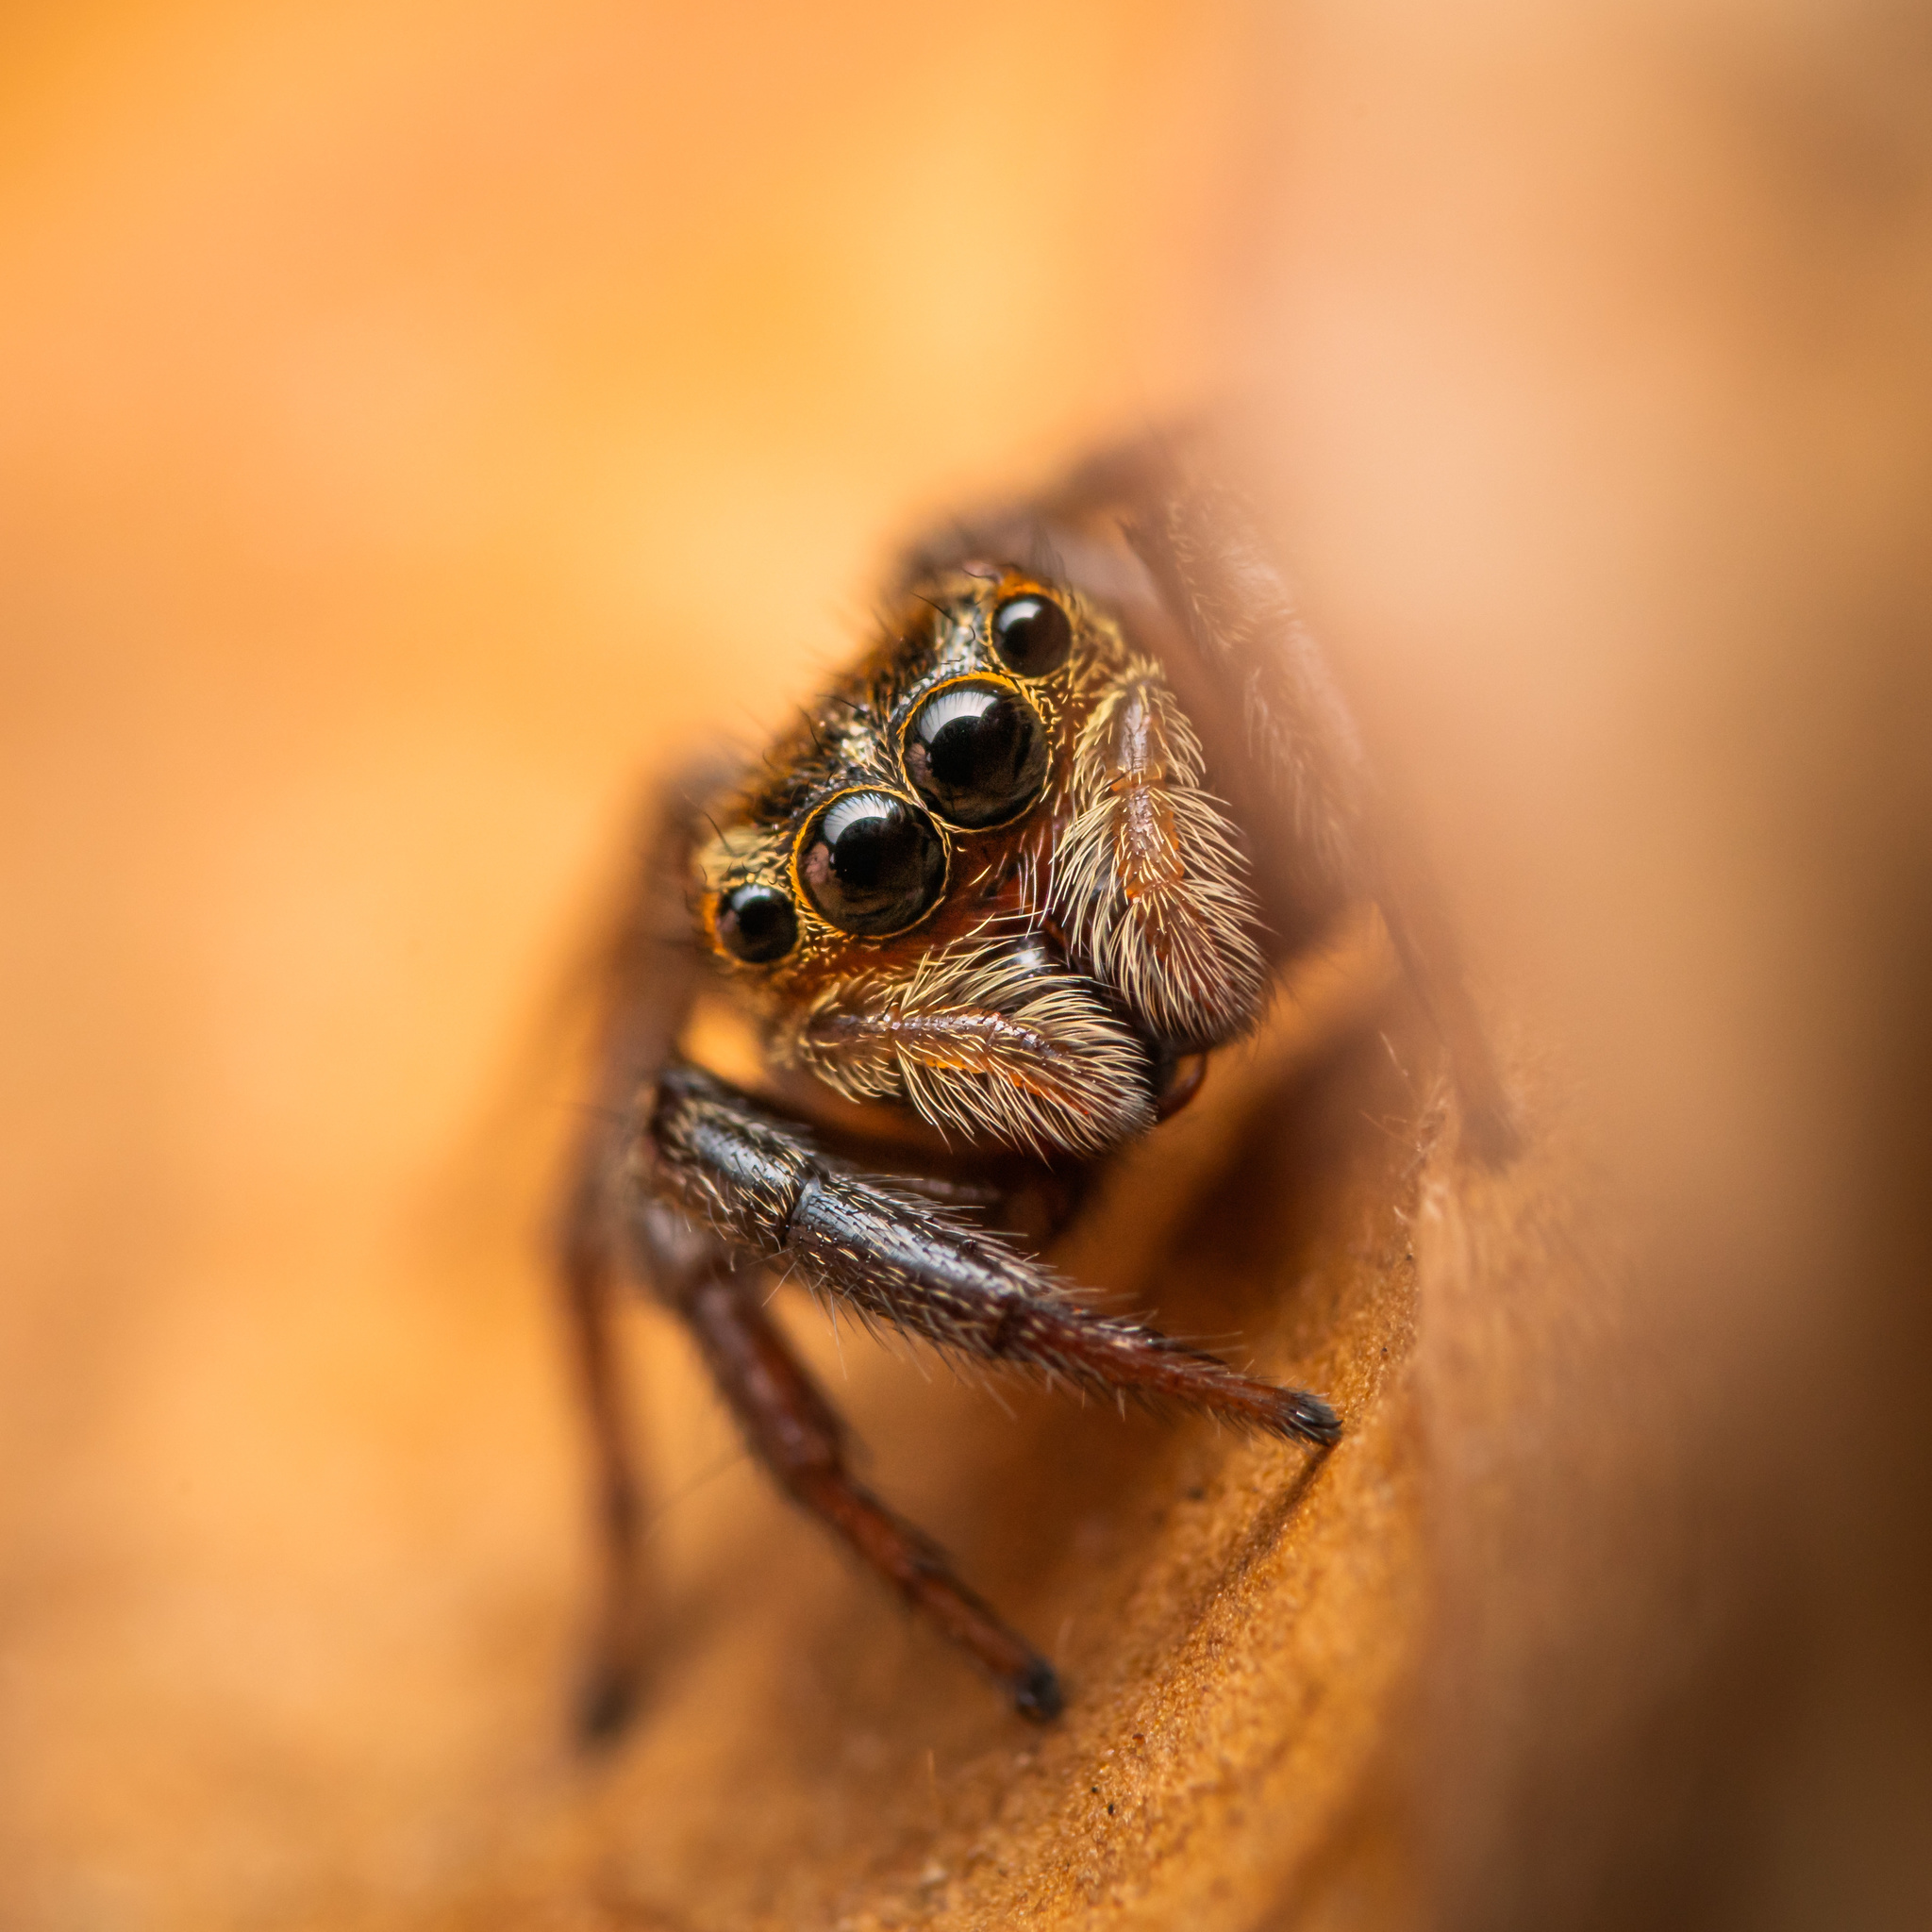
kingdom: Animalia
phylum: Arthropoda
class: Arachnida
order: Araneae
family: Salticidae
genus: Hasarius
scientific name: Hasarius adansoni
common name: Jumping spider
